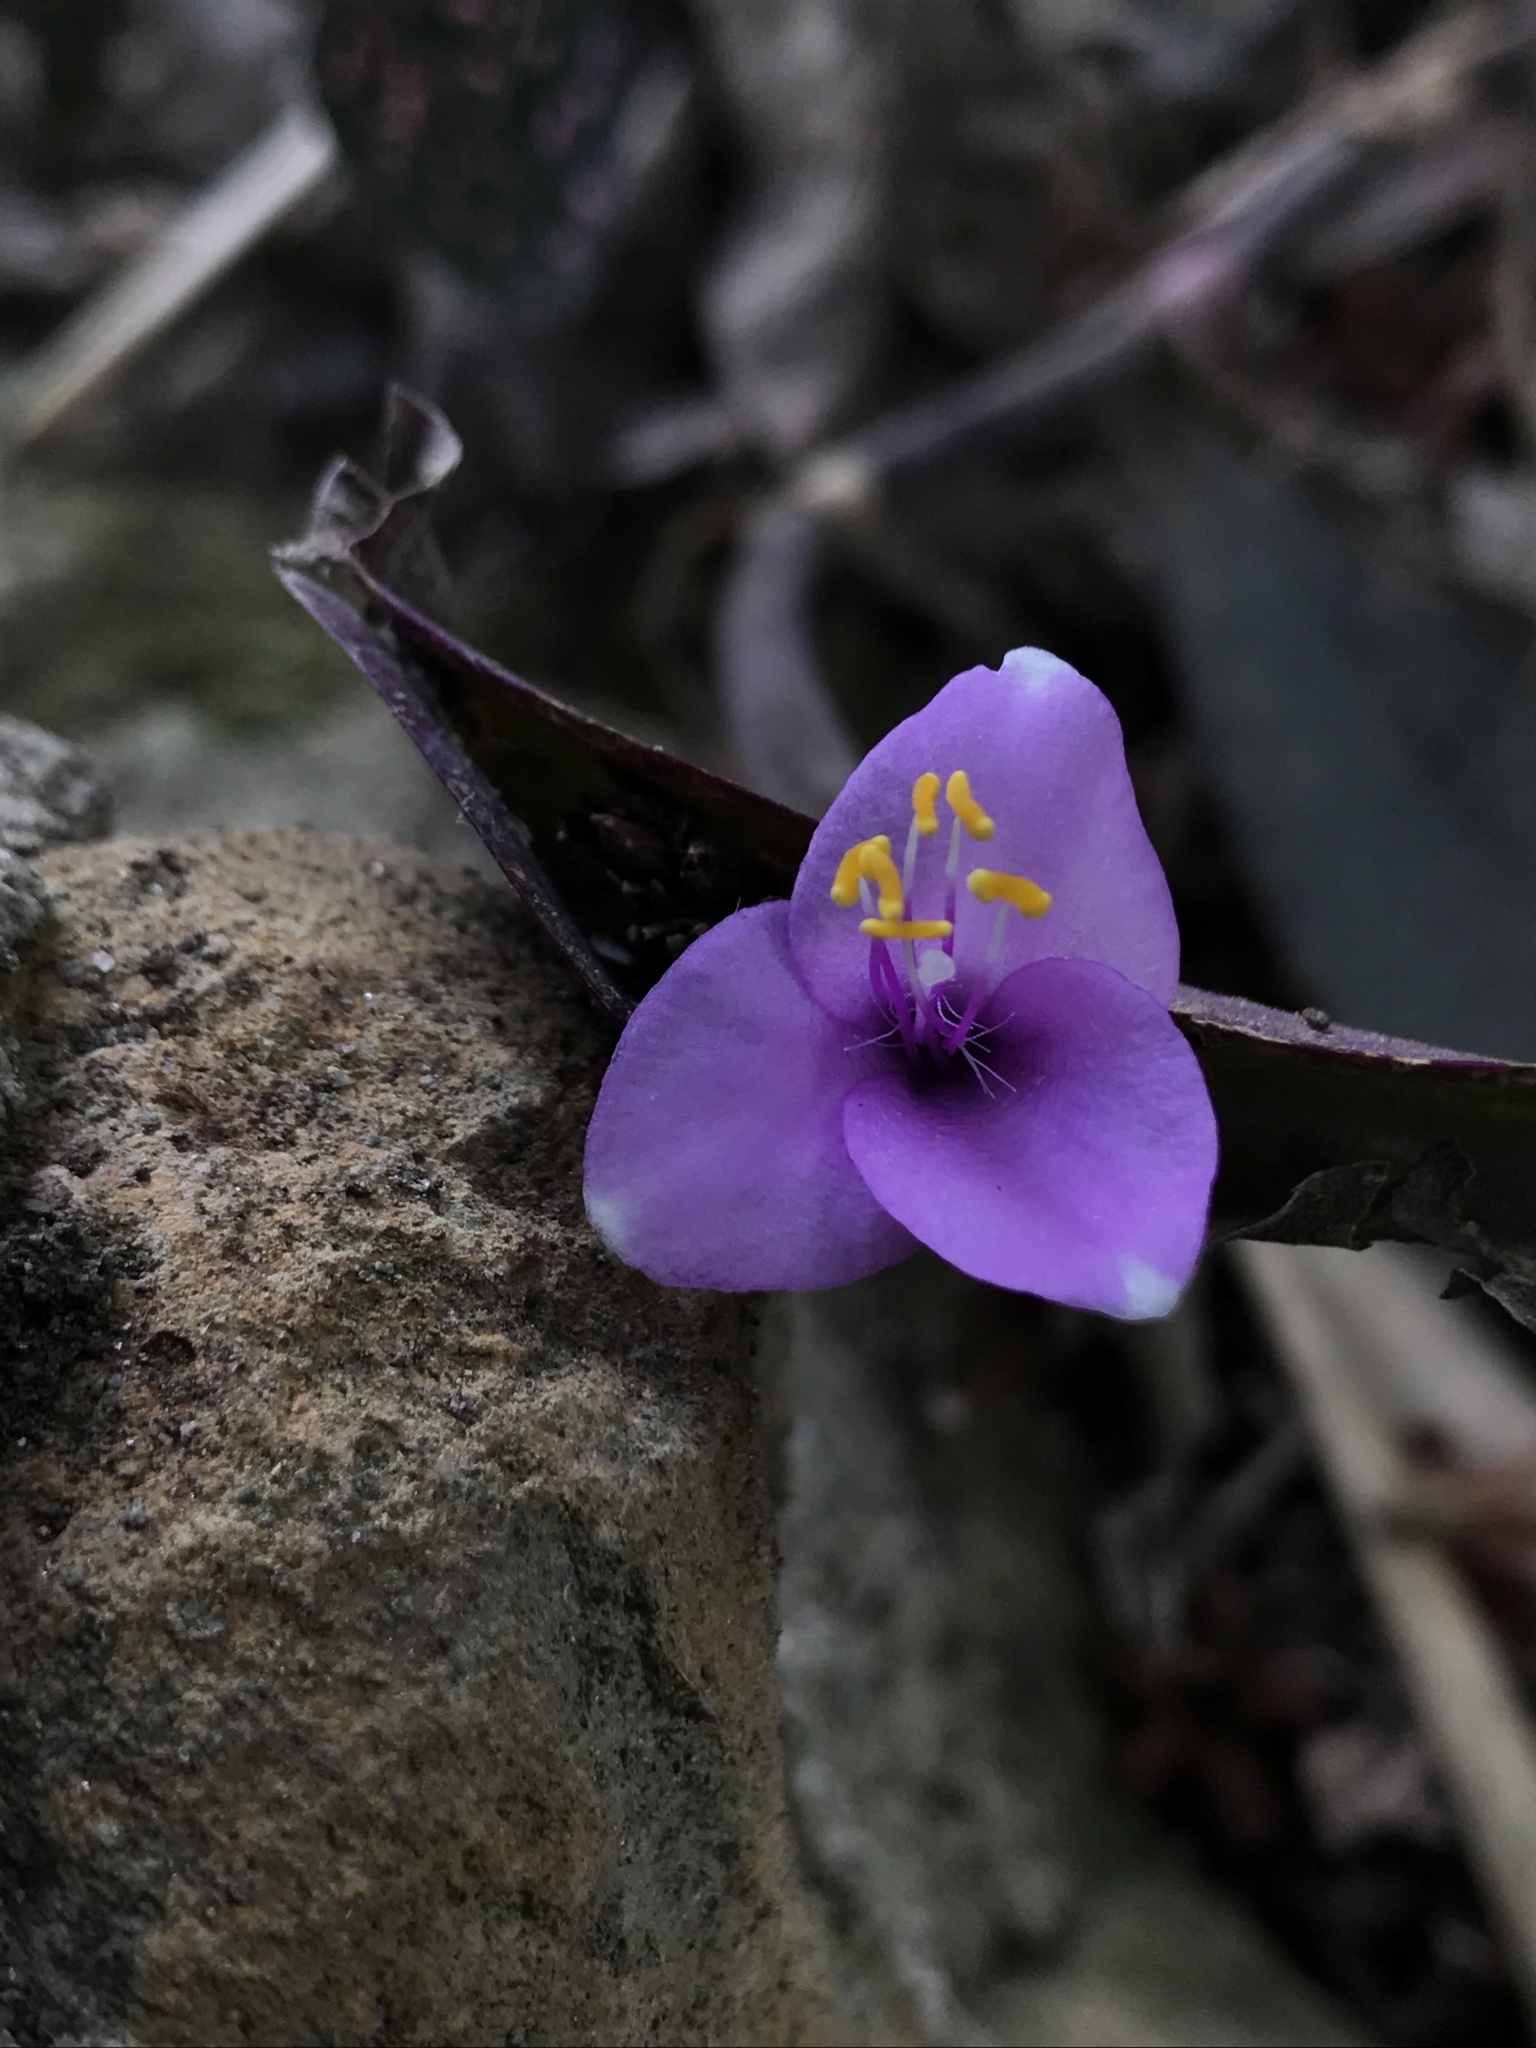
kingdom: Plantae
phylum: Tracheophyta
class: Liliopsida
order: Commelinales
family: Commelinaceae
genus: Tradescantia
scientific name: Tradescantia pallida
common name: Purpleheart
